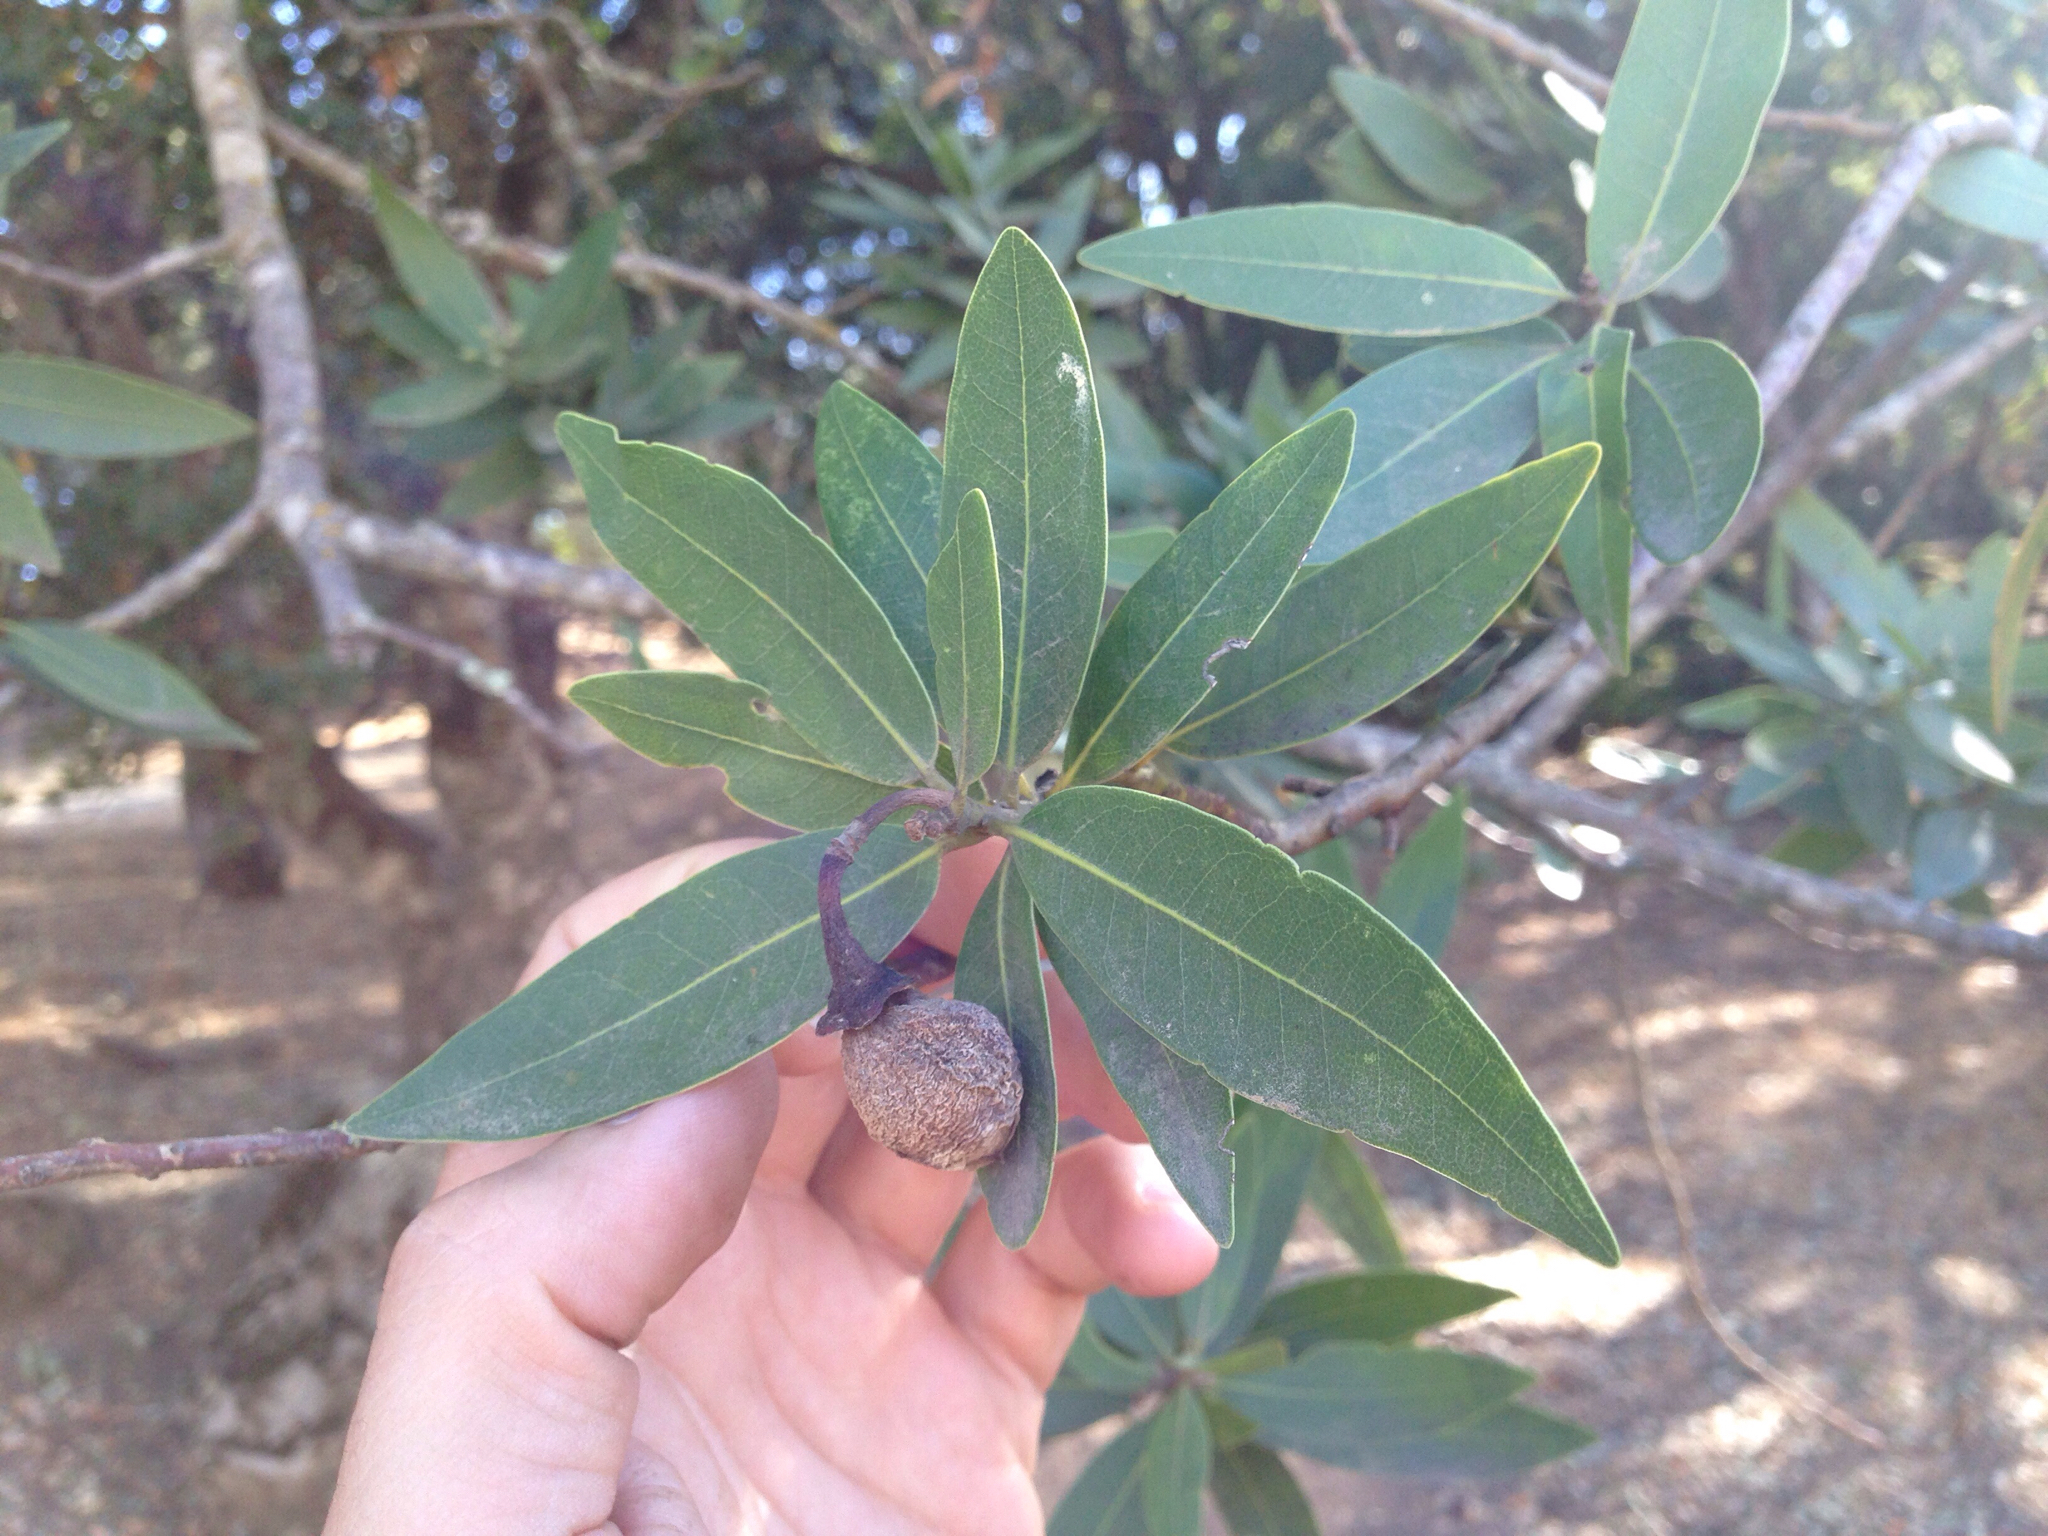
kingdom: Plantae
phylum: Tracheophyta
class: Magnoliopsida
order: Laurales
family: Lauraceae
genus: Umbellularia
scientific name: Umbellularia californica
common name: California bay
